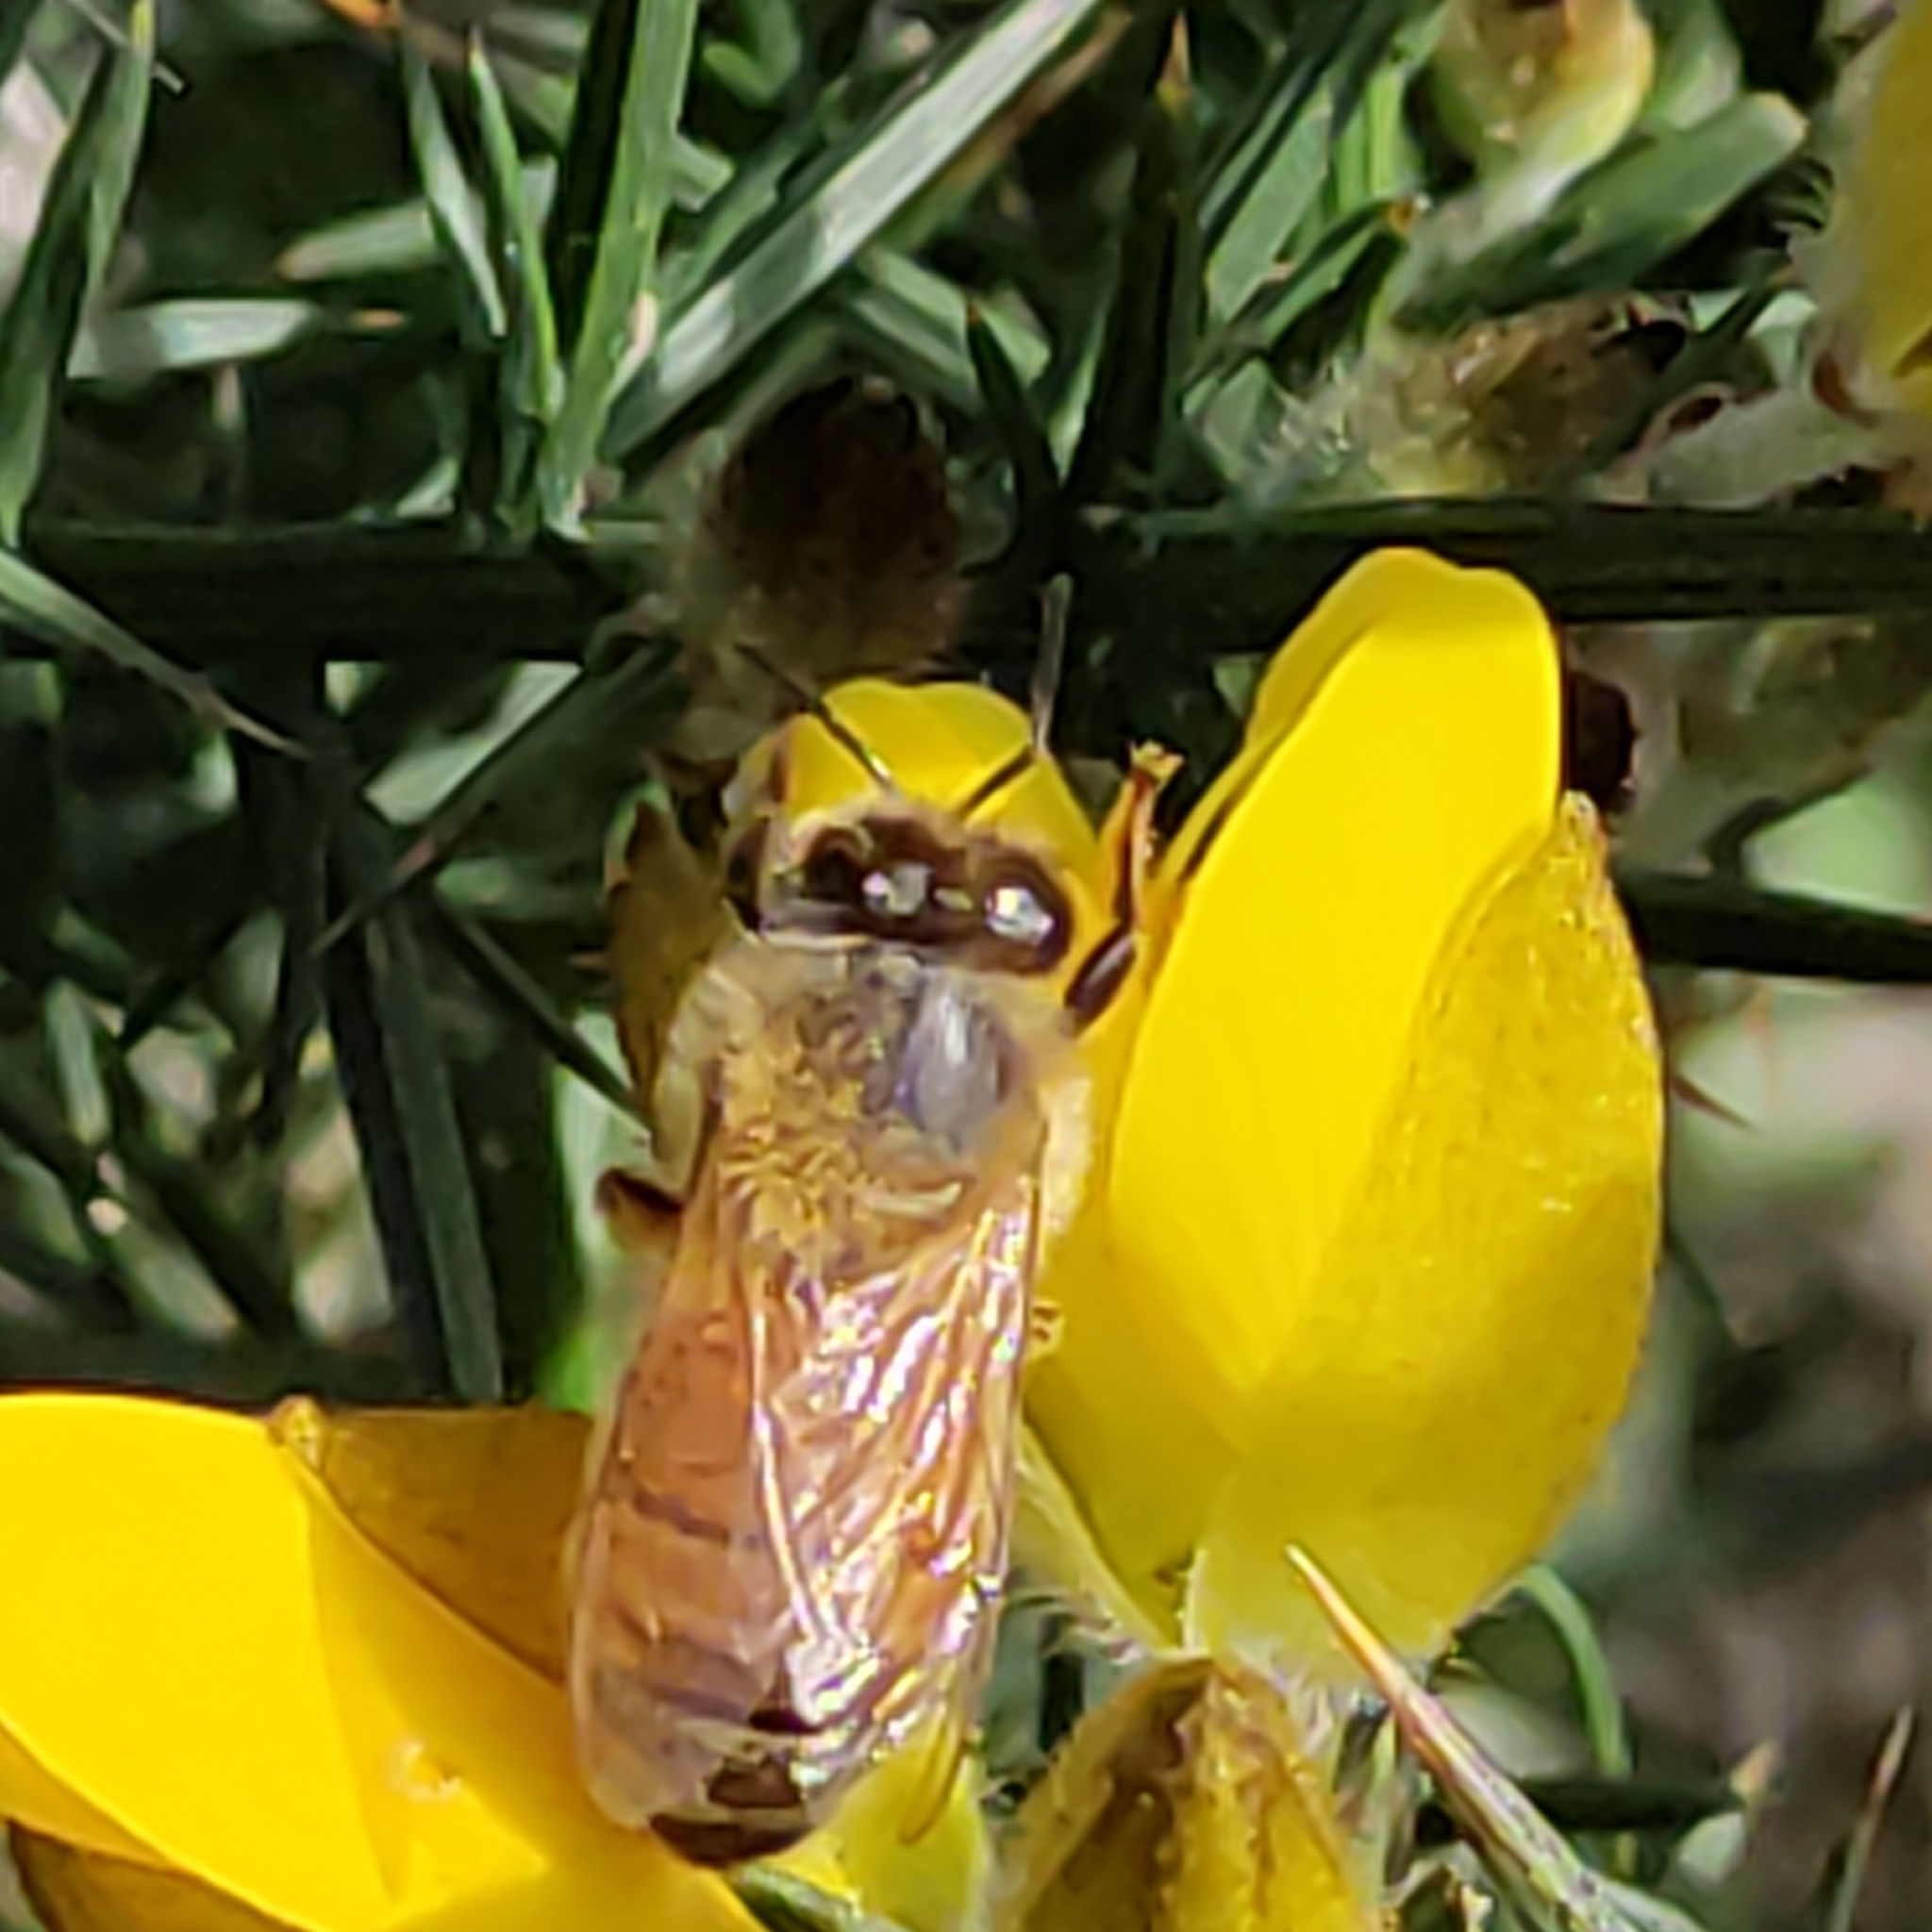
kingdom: Animalia
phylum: Arthropoda
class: Insecta
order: Hymenoptera
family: Apidae
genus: Apis
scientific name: Apis mellifera
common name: Honey bee
